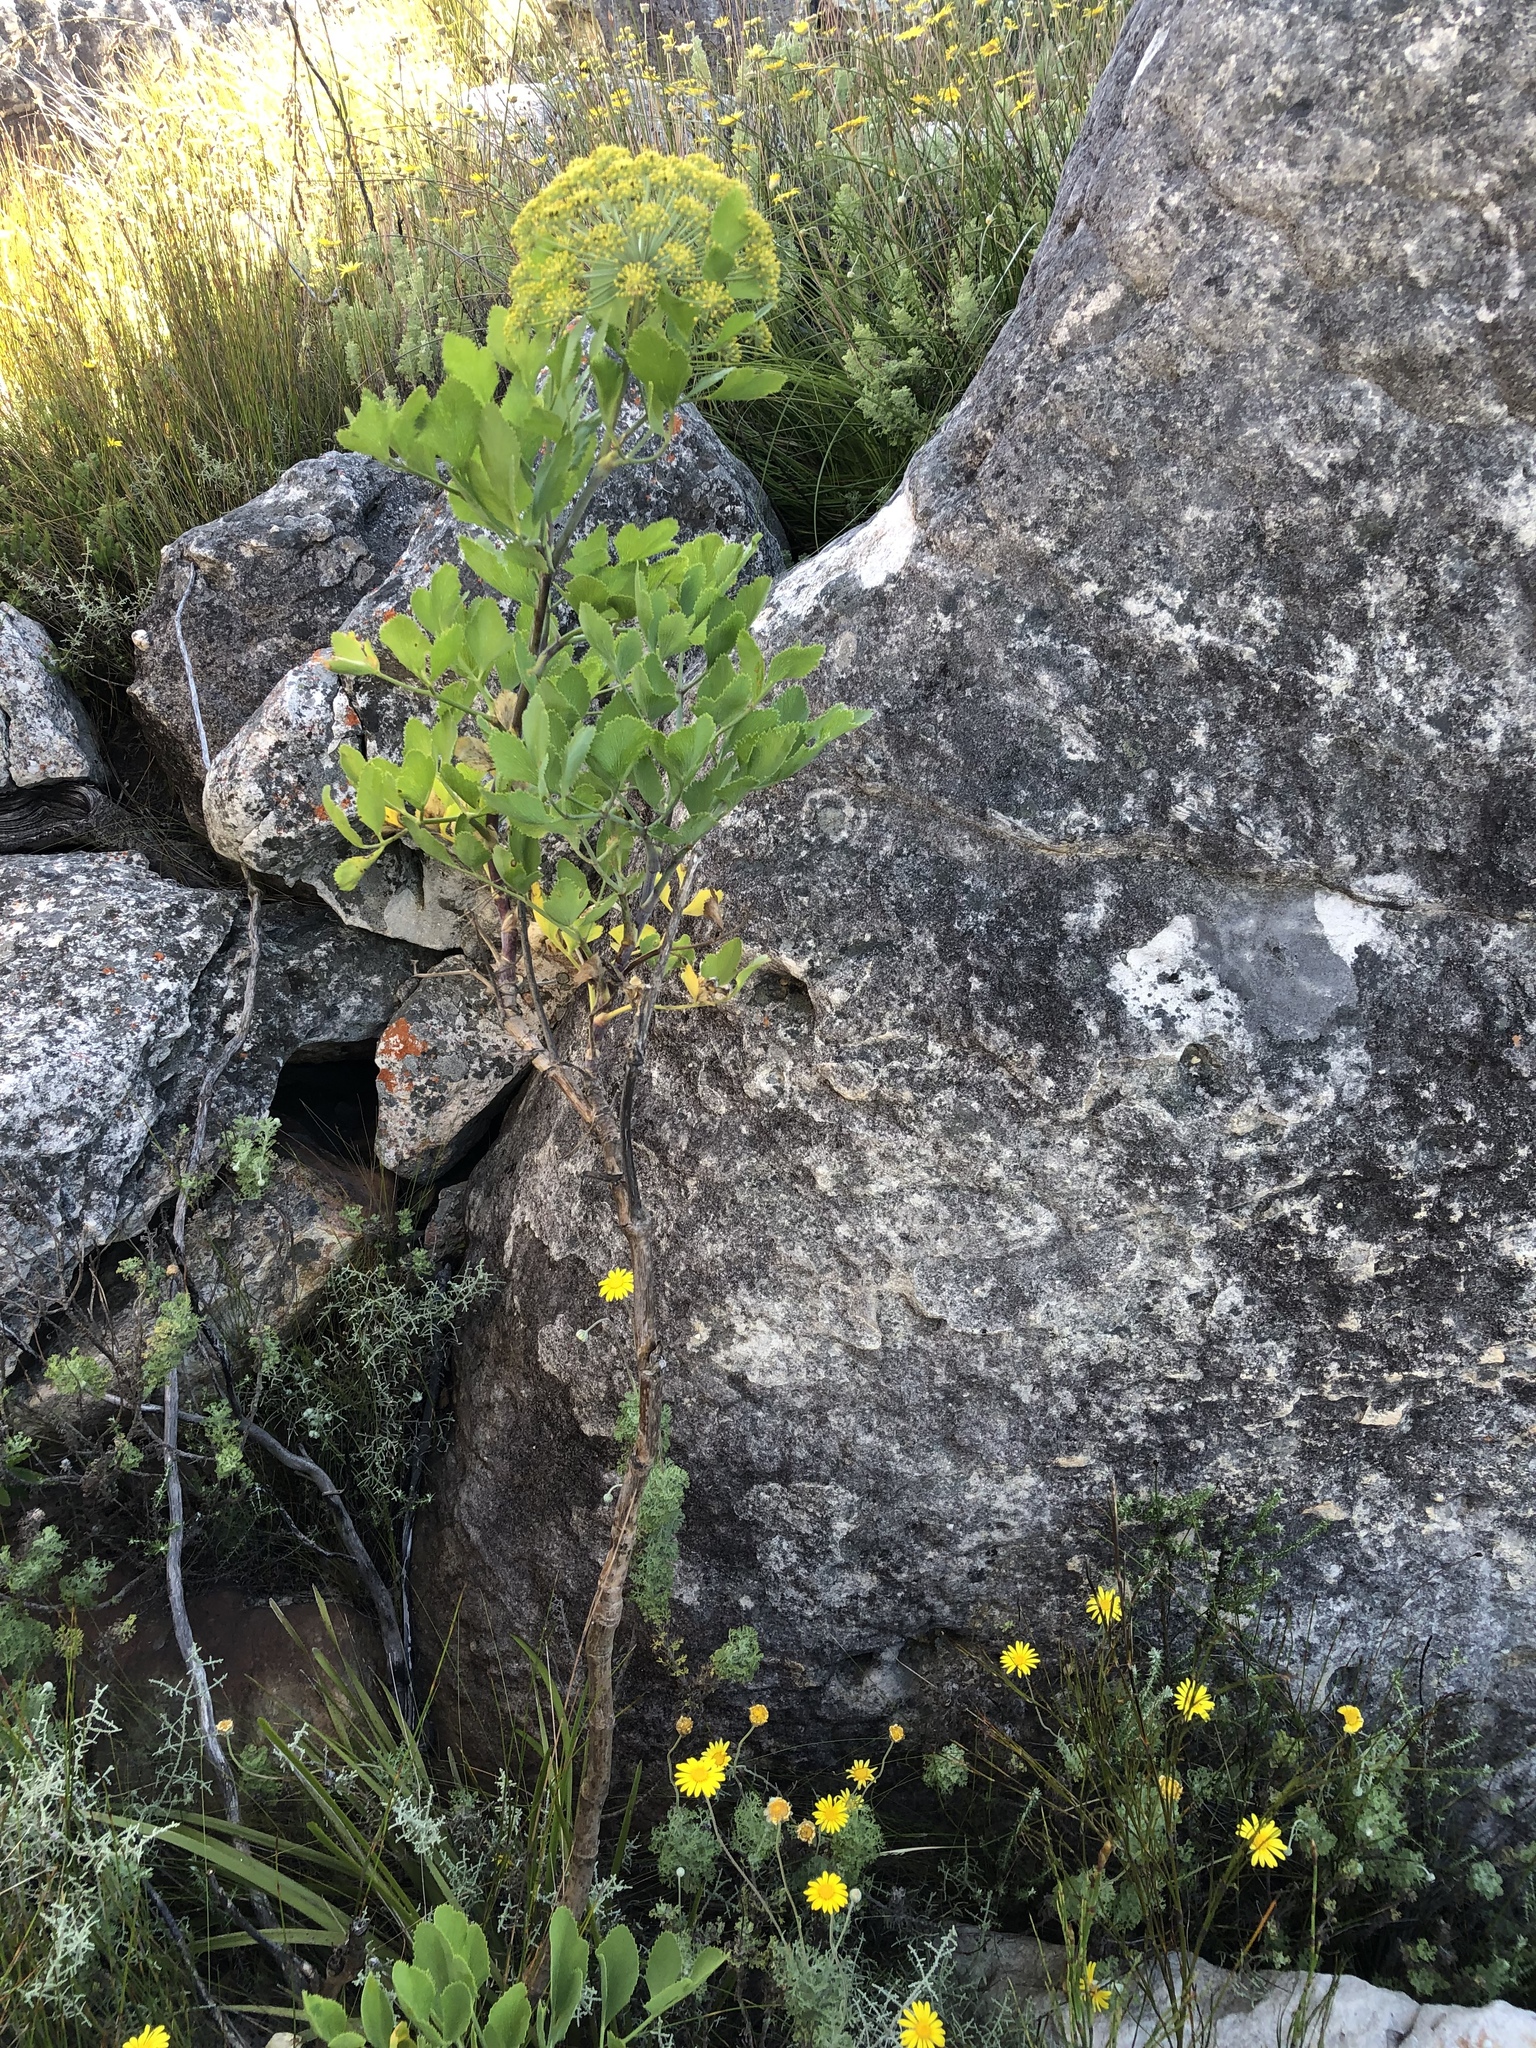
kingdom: Plantae
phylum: Tracheophyta
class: Magnoliopsida
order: Apiales
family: Apiaceae
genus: Notobubon
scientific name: Notobubon galbanum
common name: Blisterbush
